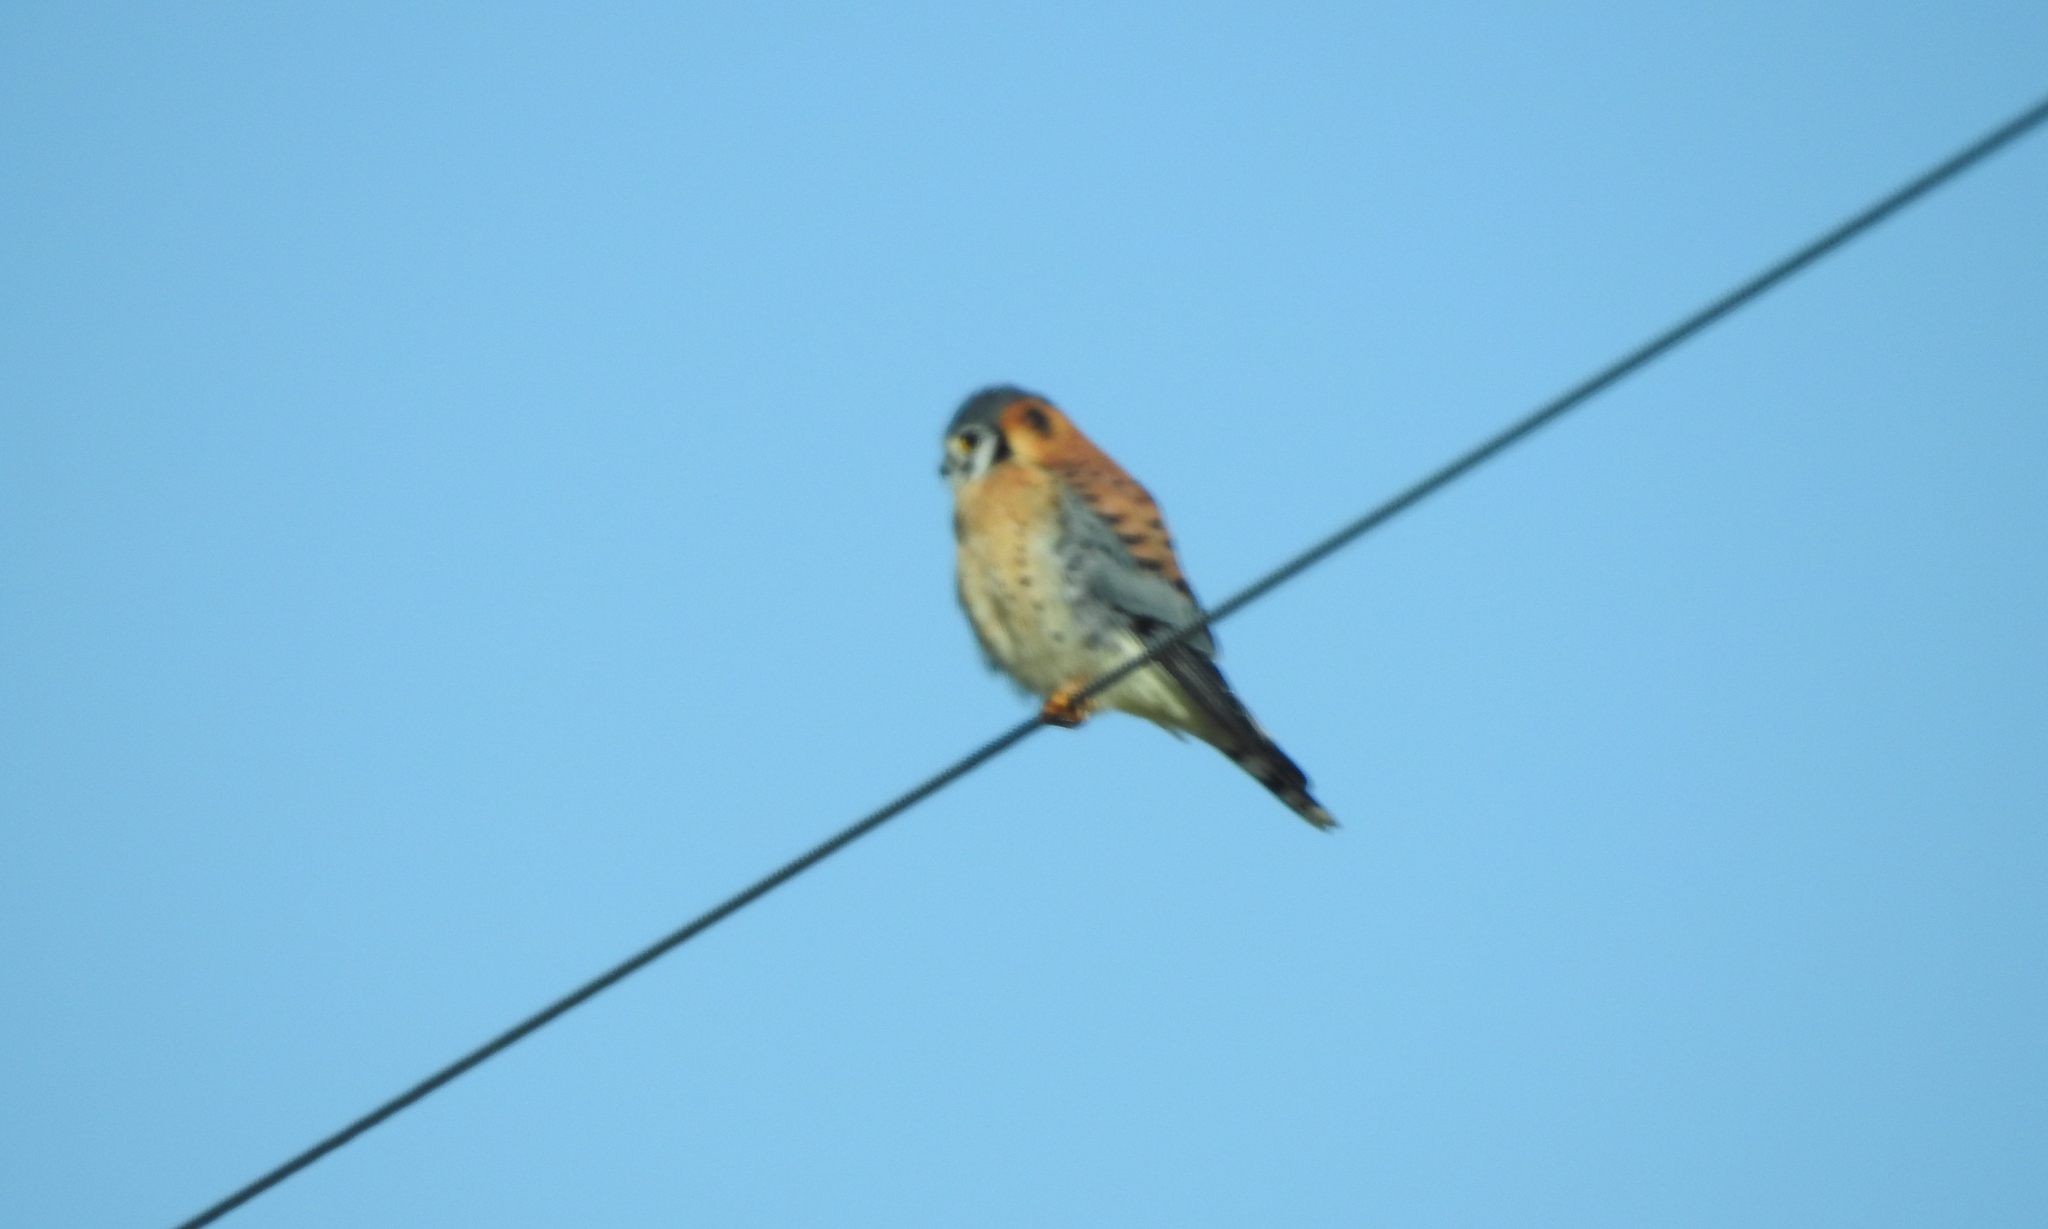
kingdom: Animalia
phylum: Chordata
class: Aves
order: Falconiformes
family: Falconidae
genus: Falco
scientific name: Falco sparverius
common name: American kestrel
